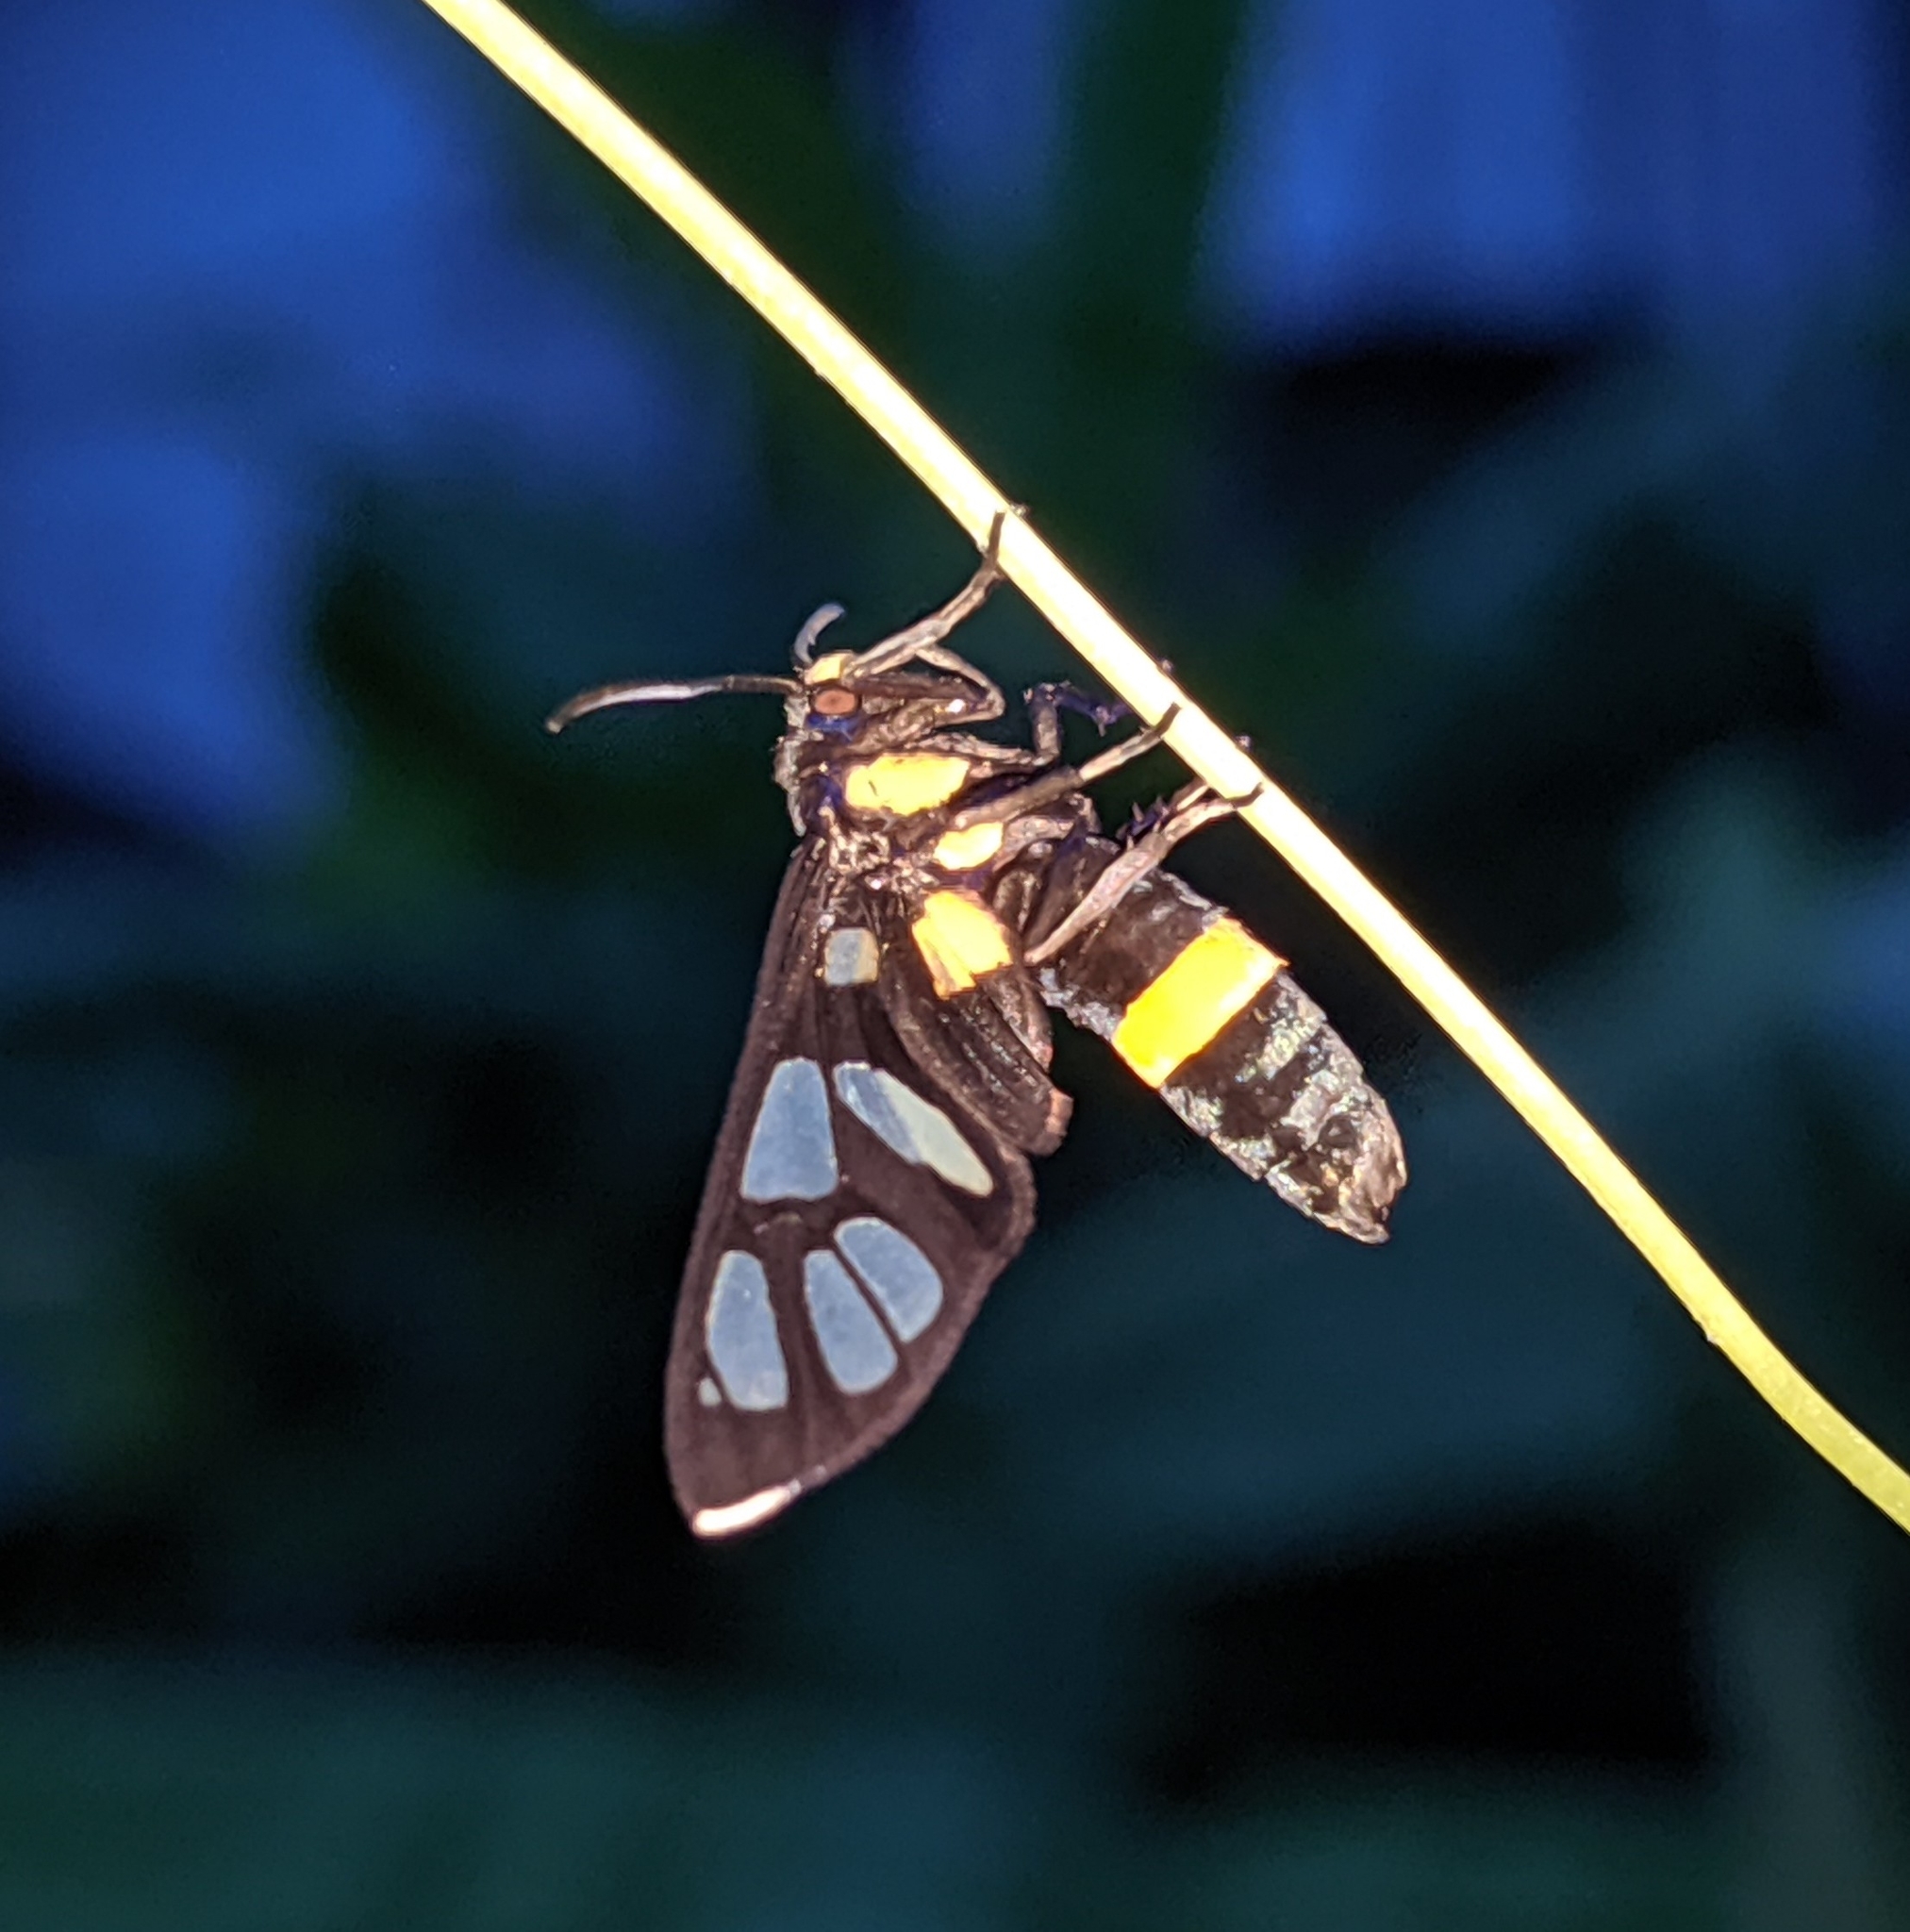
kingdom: Animalia
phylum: Arthropoda
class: Insecta
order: Lepidoptera
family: Erebidae
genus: Amata
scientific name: Amata sperbius
